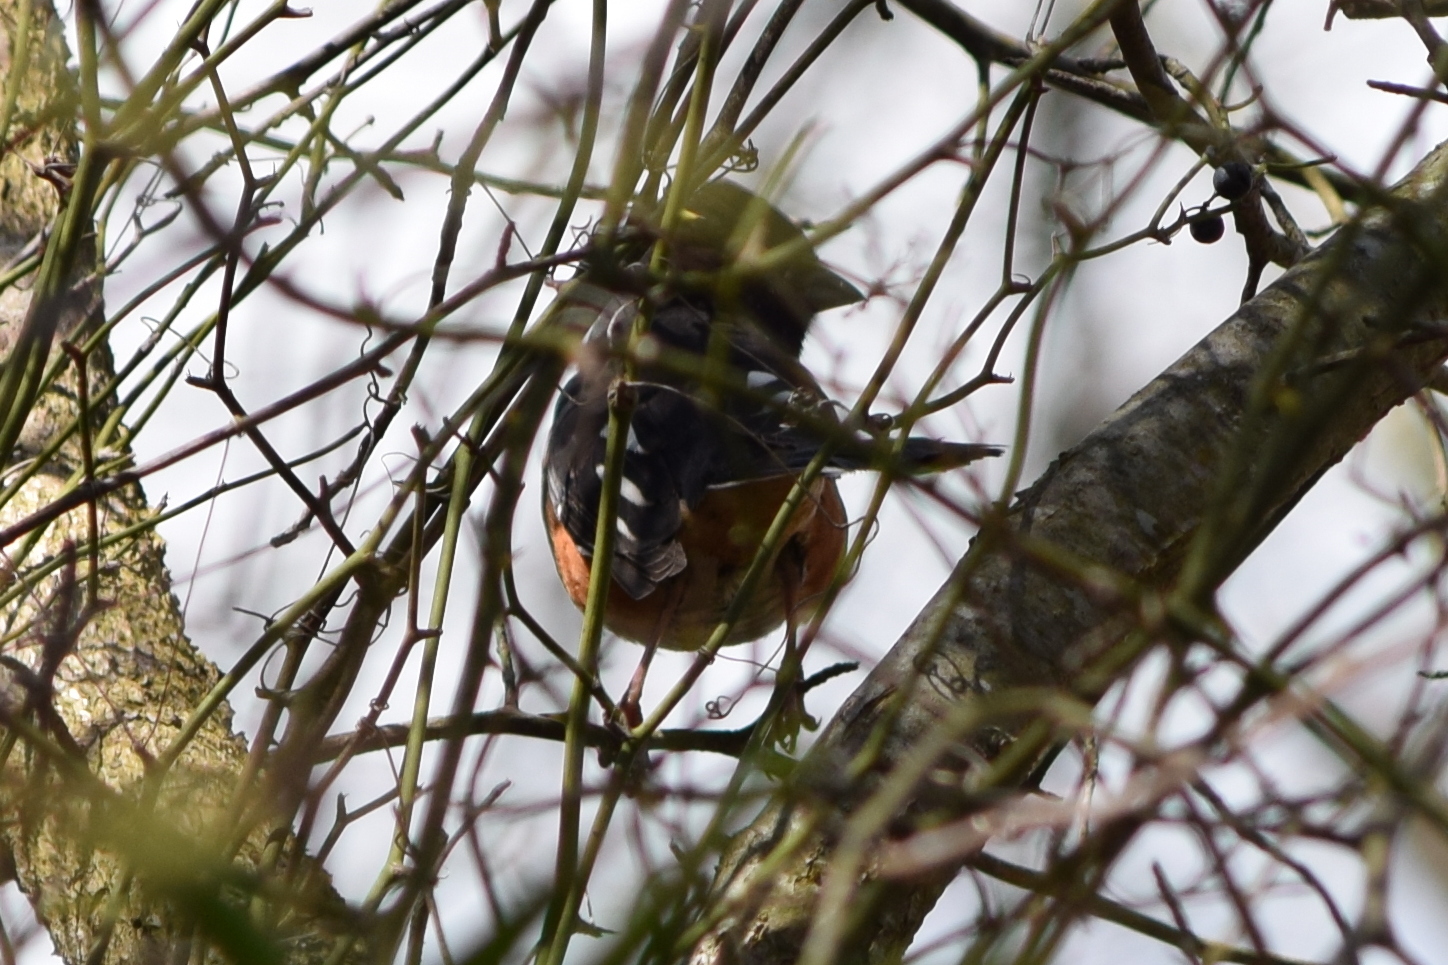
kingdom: Animalia
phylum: Chordata
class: Aves
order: Passeriformes
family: Passerellidae
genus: Pipilo
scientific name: Pipilo erythrophthalmus
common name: Eastern towhee
